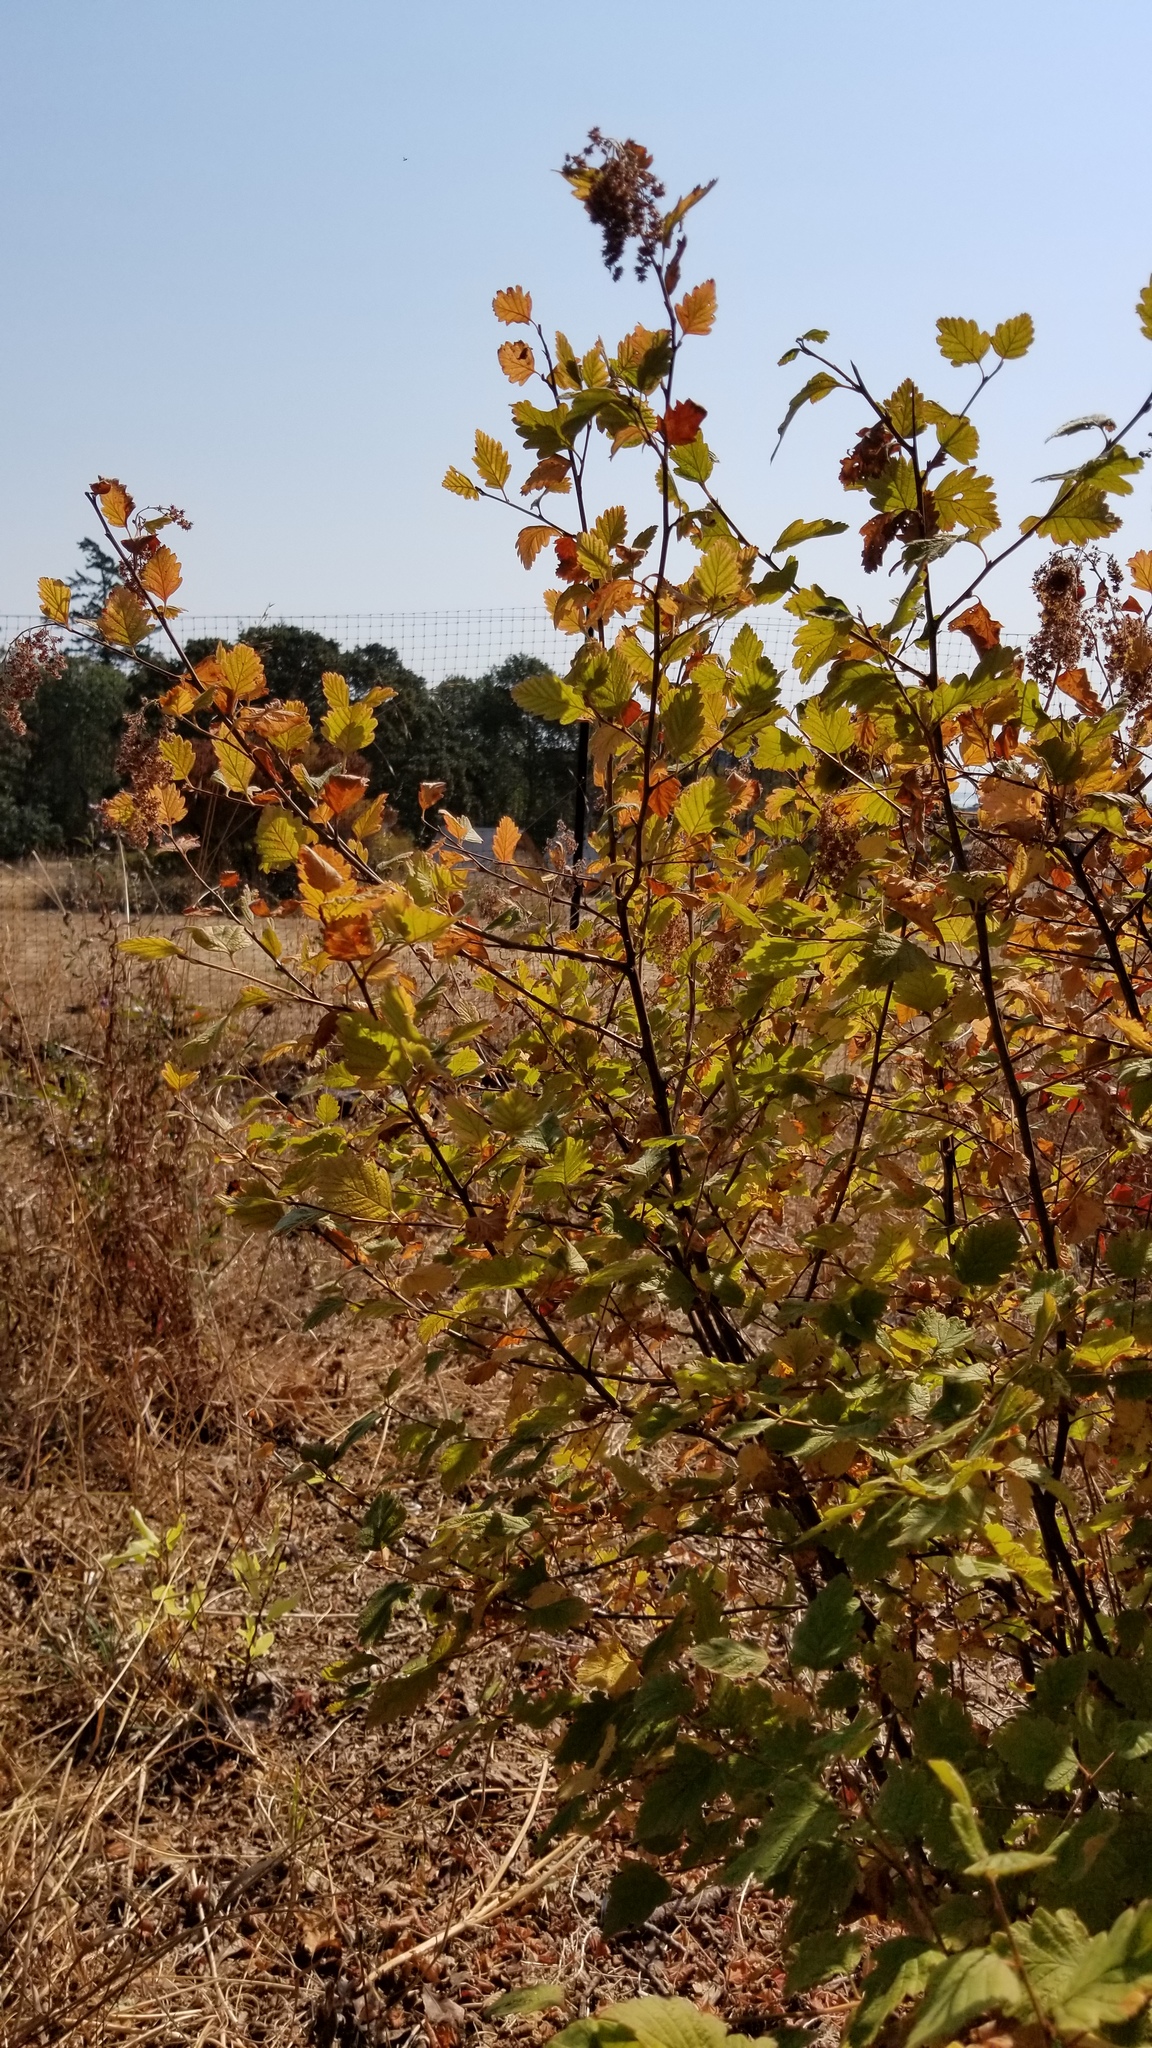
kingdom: Plantae
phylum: Tracheophyta
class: Magnoliopsida
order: Rosales
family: Rosaceae
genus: Holodiscus
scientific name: Holodiscus discolor
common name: Oceanspray
